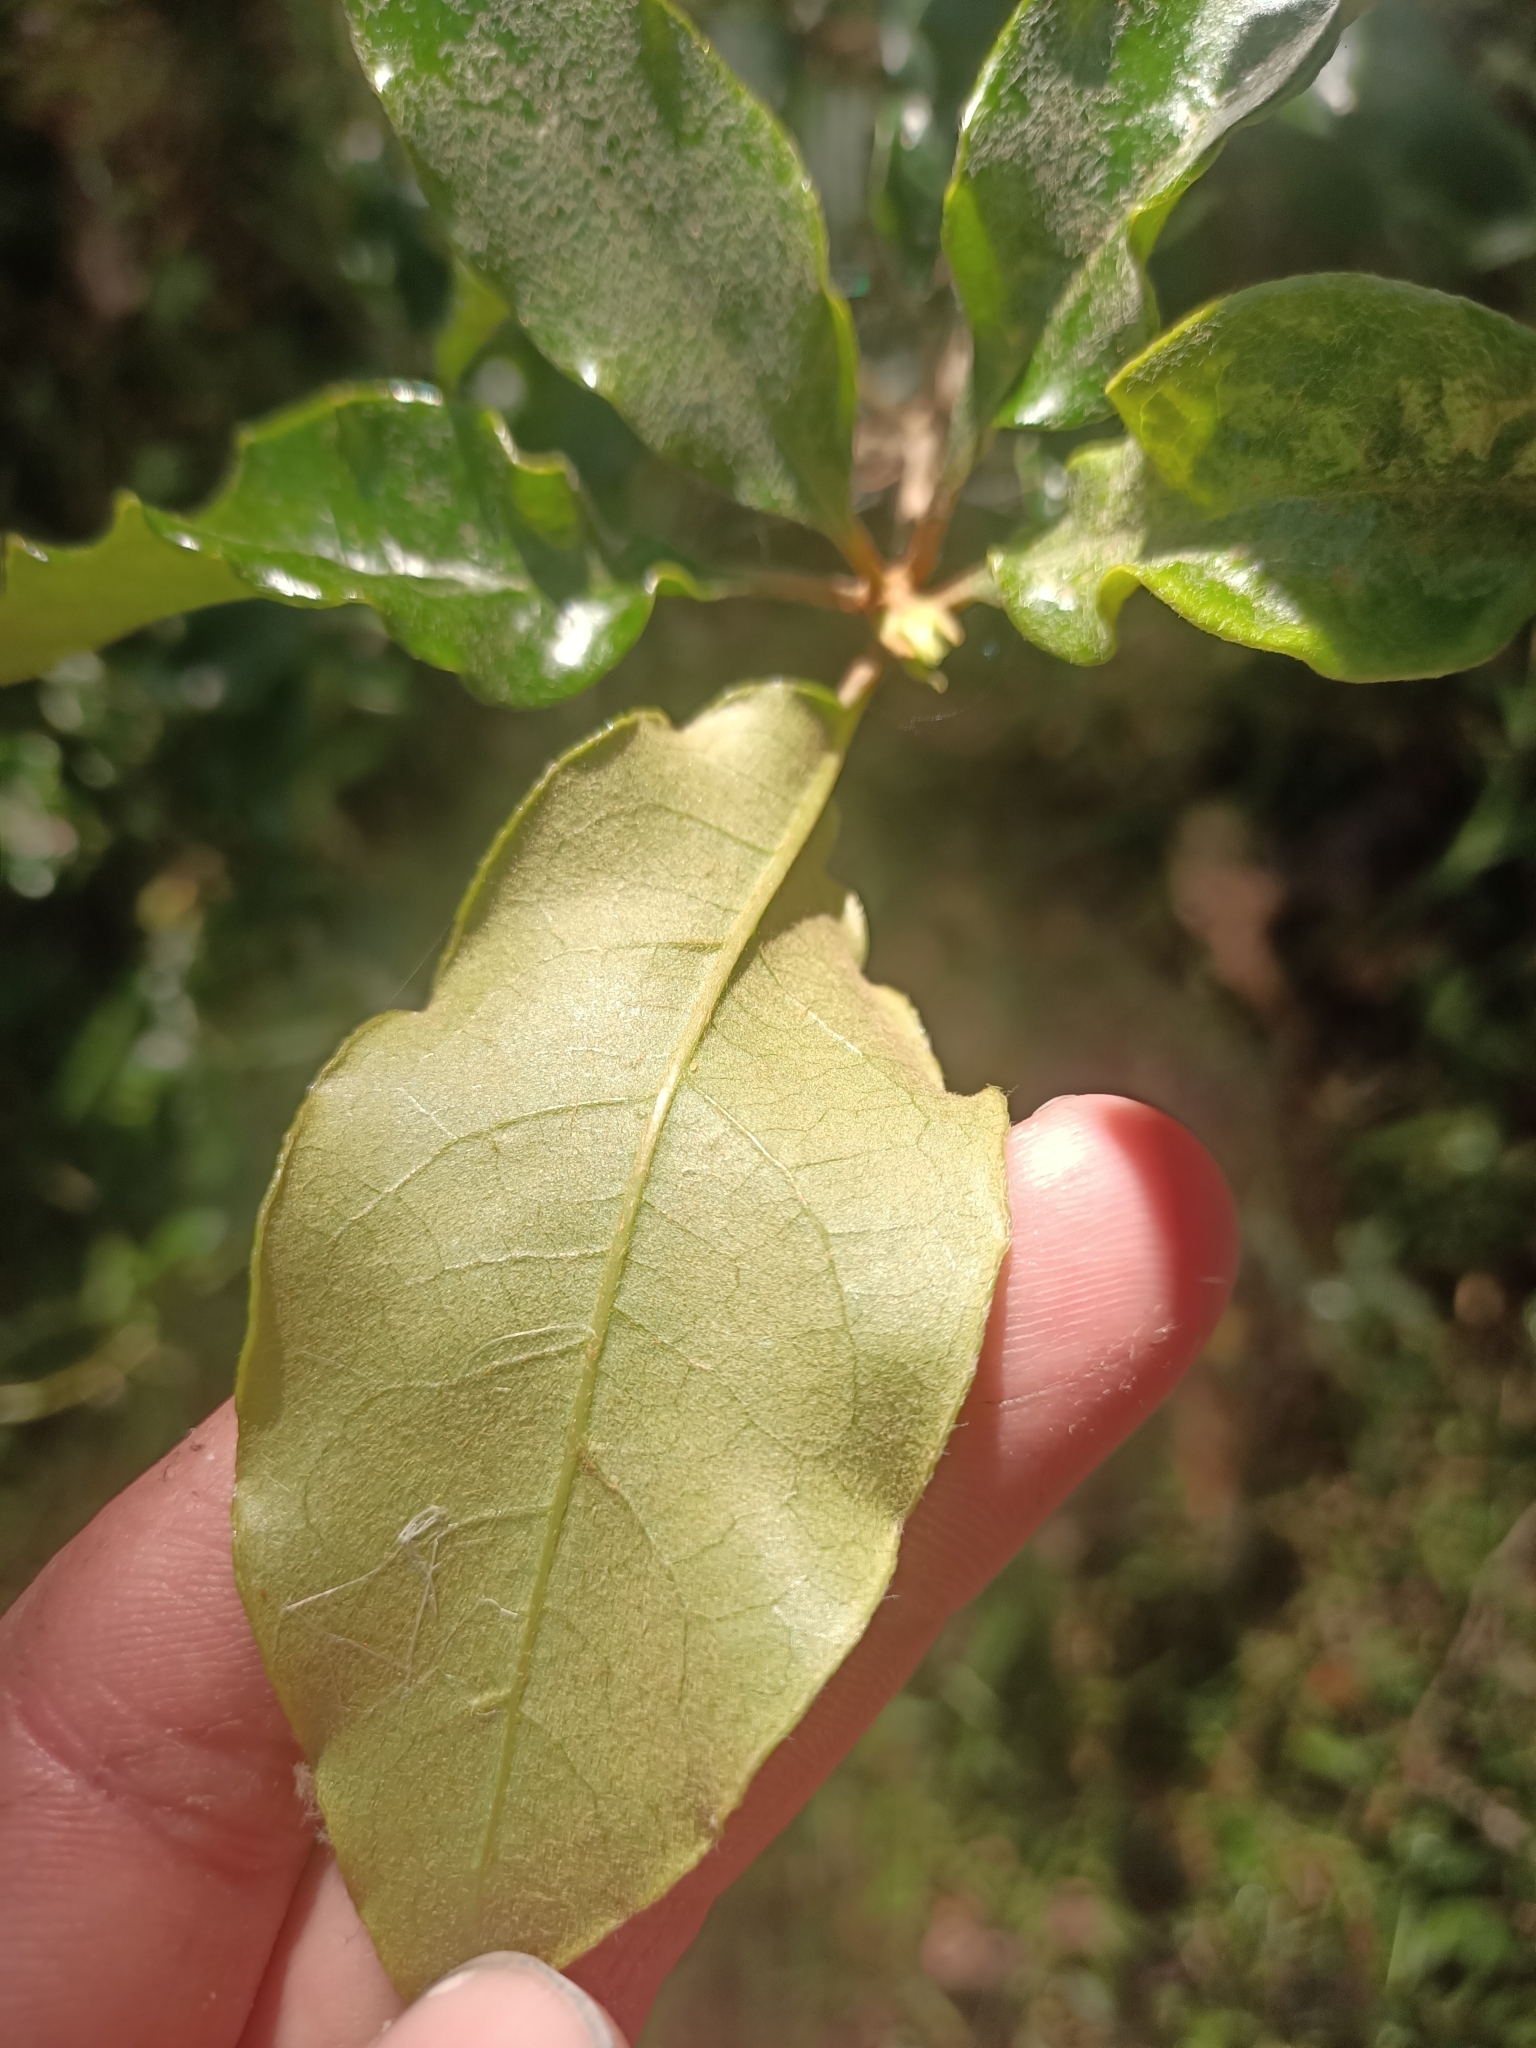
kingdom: Plantae
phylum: Tracheophyta
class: Magnoliopsida
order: Apiales
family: Pittosporaceae
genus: Pittosporum
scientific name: Pittosporum revolutum
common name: Brisbane-laurel
